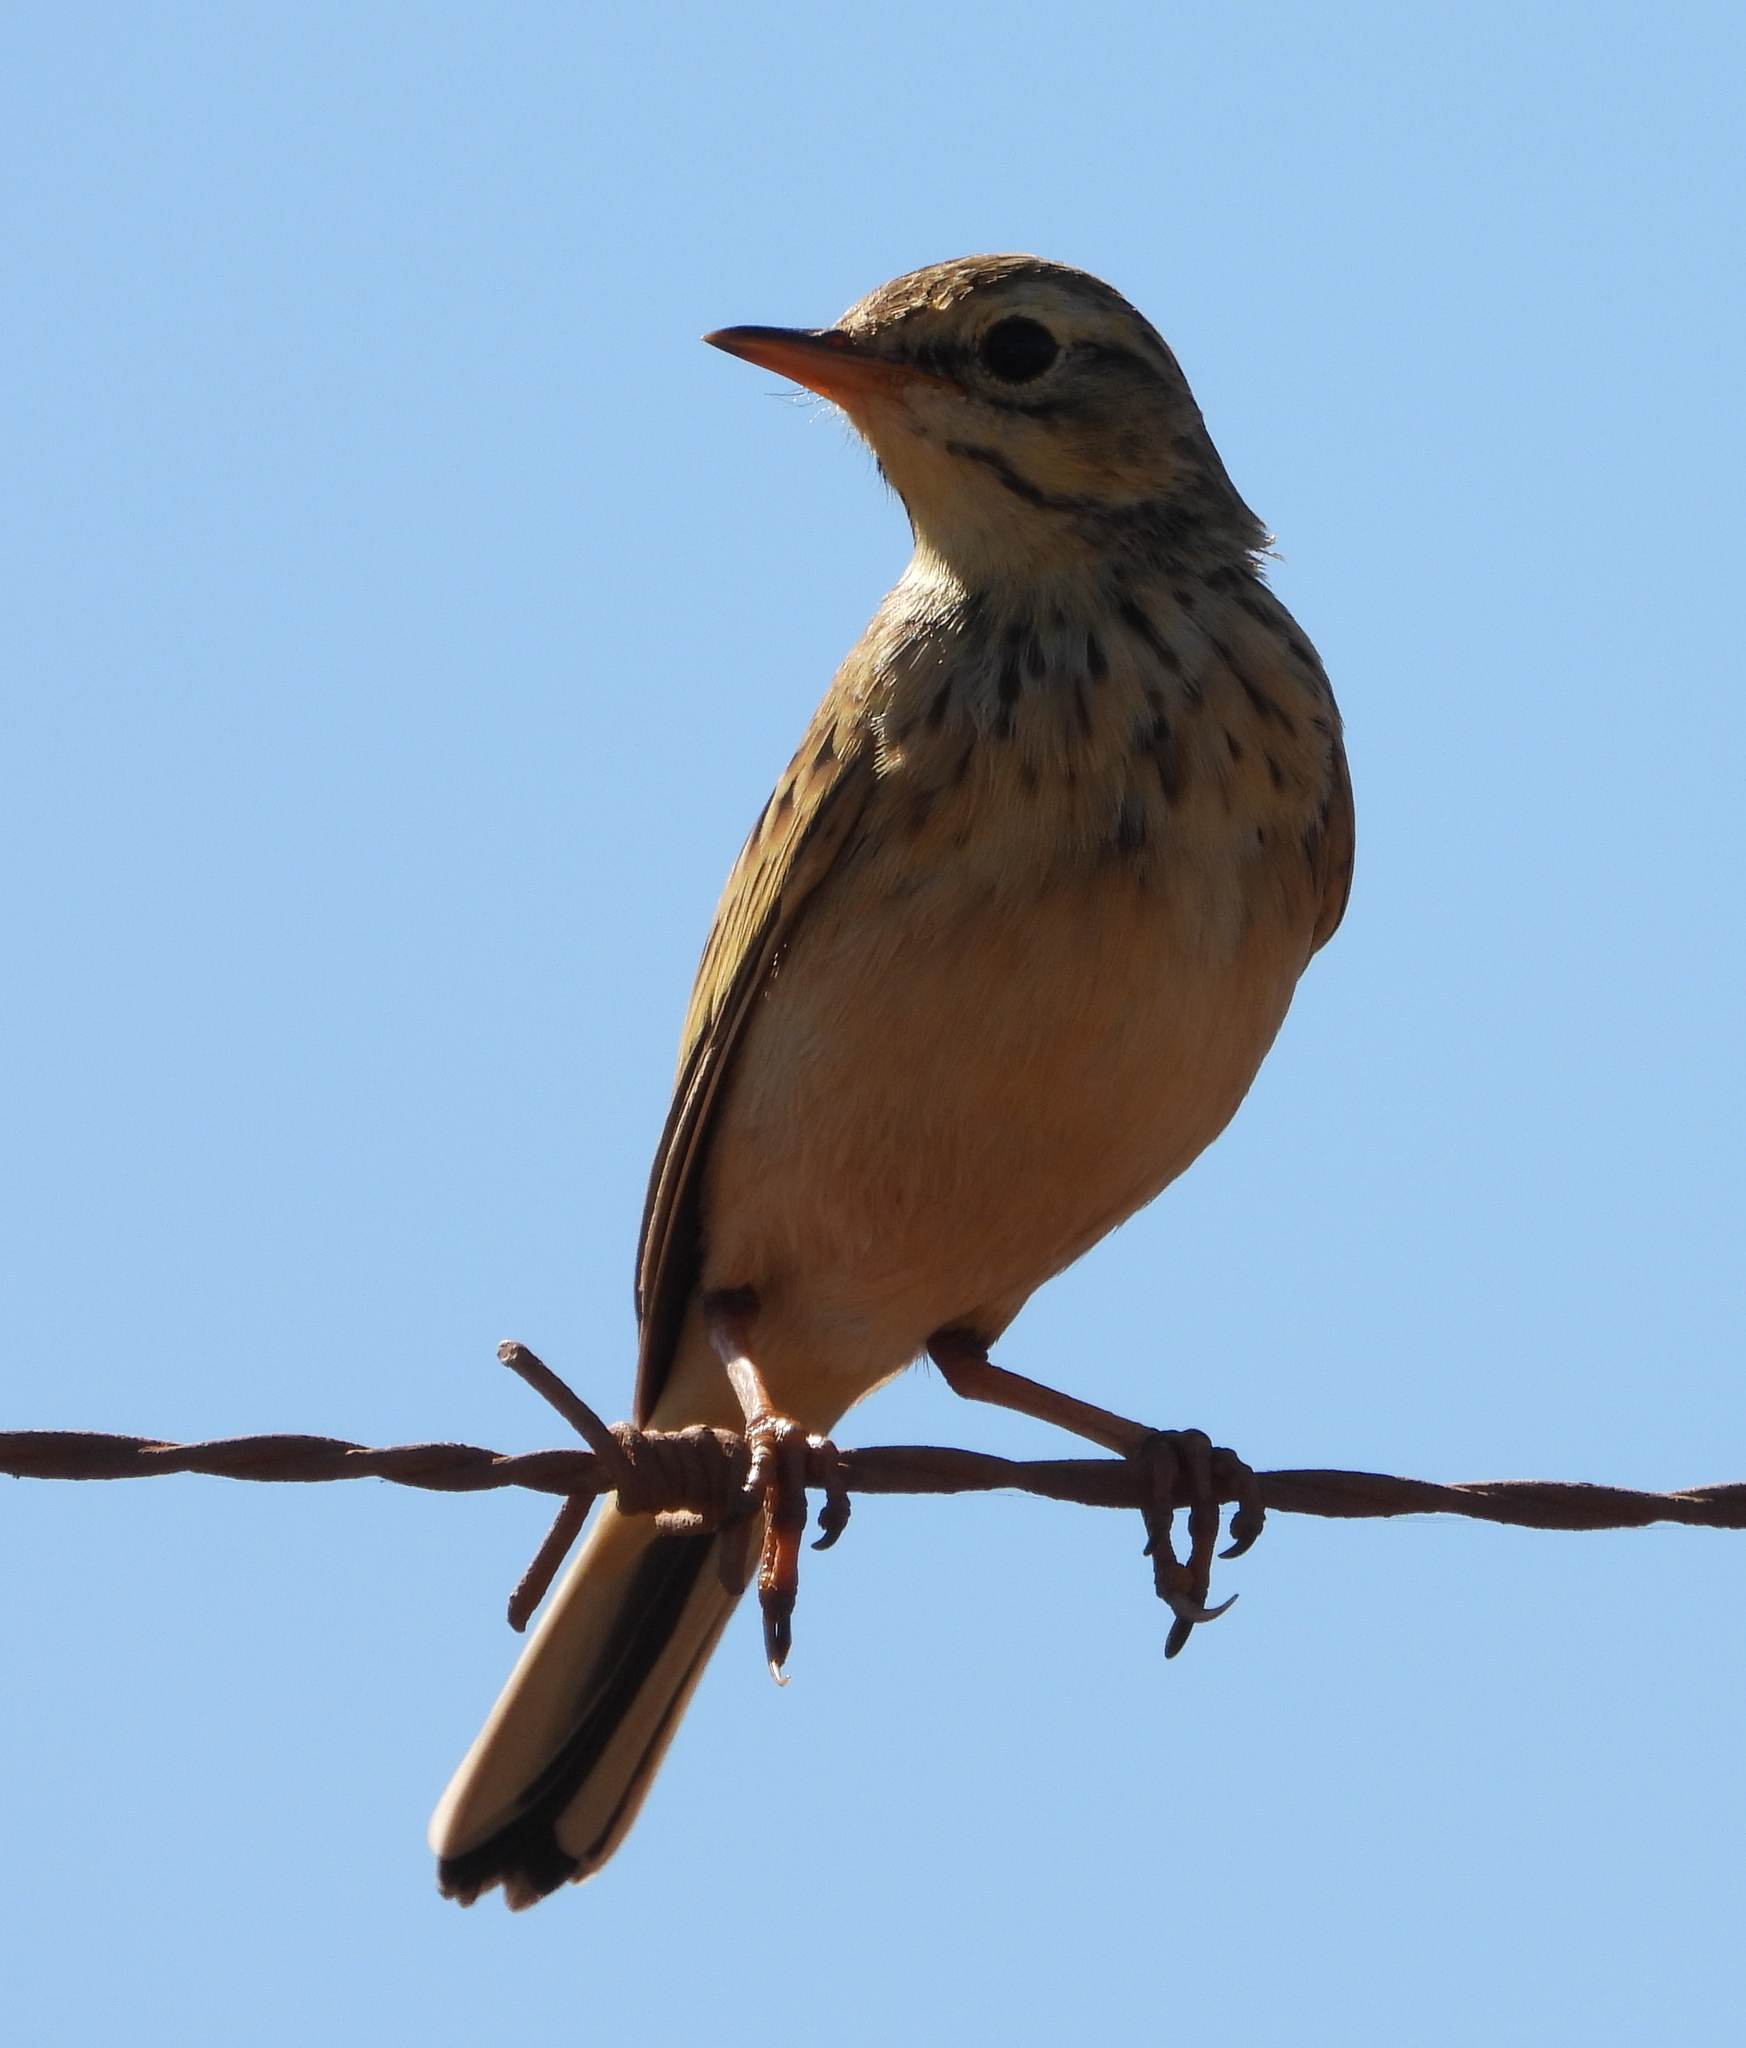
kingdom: Animalia
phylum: Chordata
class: Aves
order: Passeriformes
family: Motacillidae
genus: Anthus
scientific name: Anthus cinnamomeus
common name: African pipit
